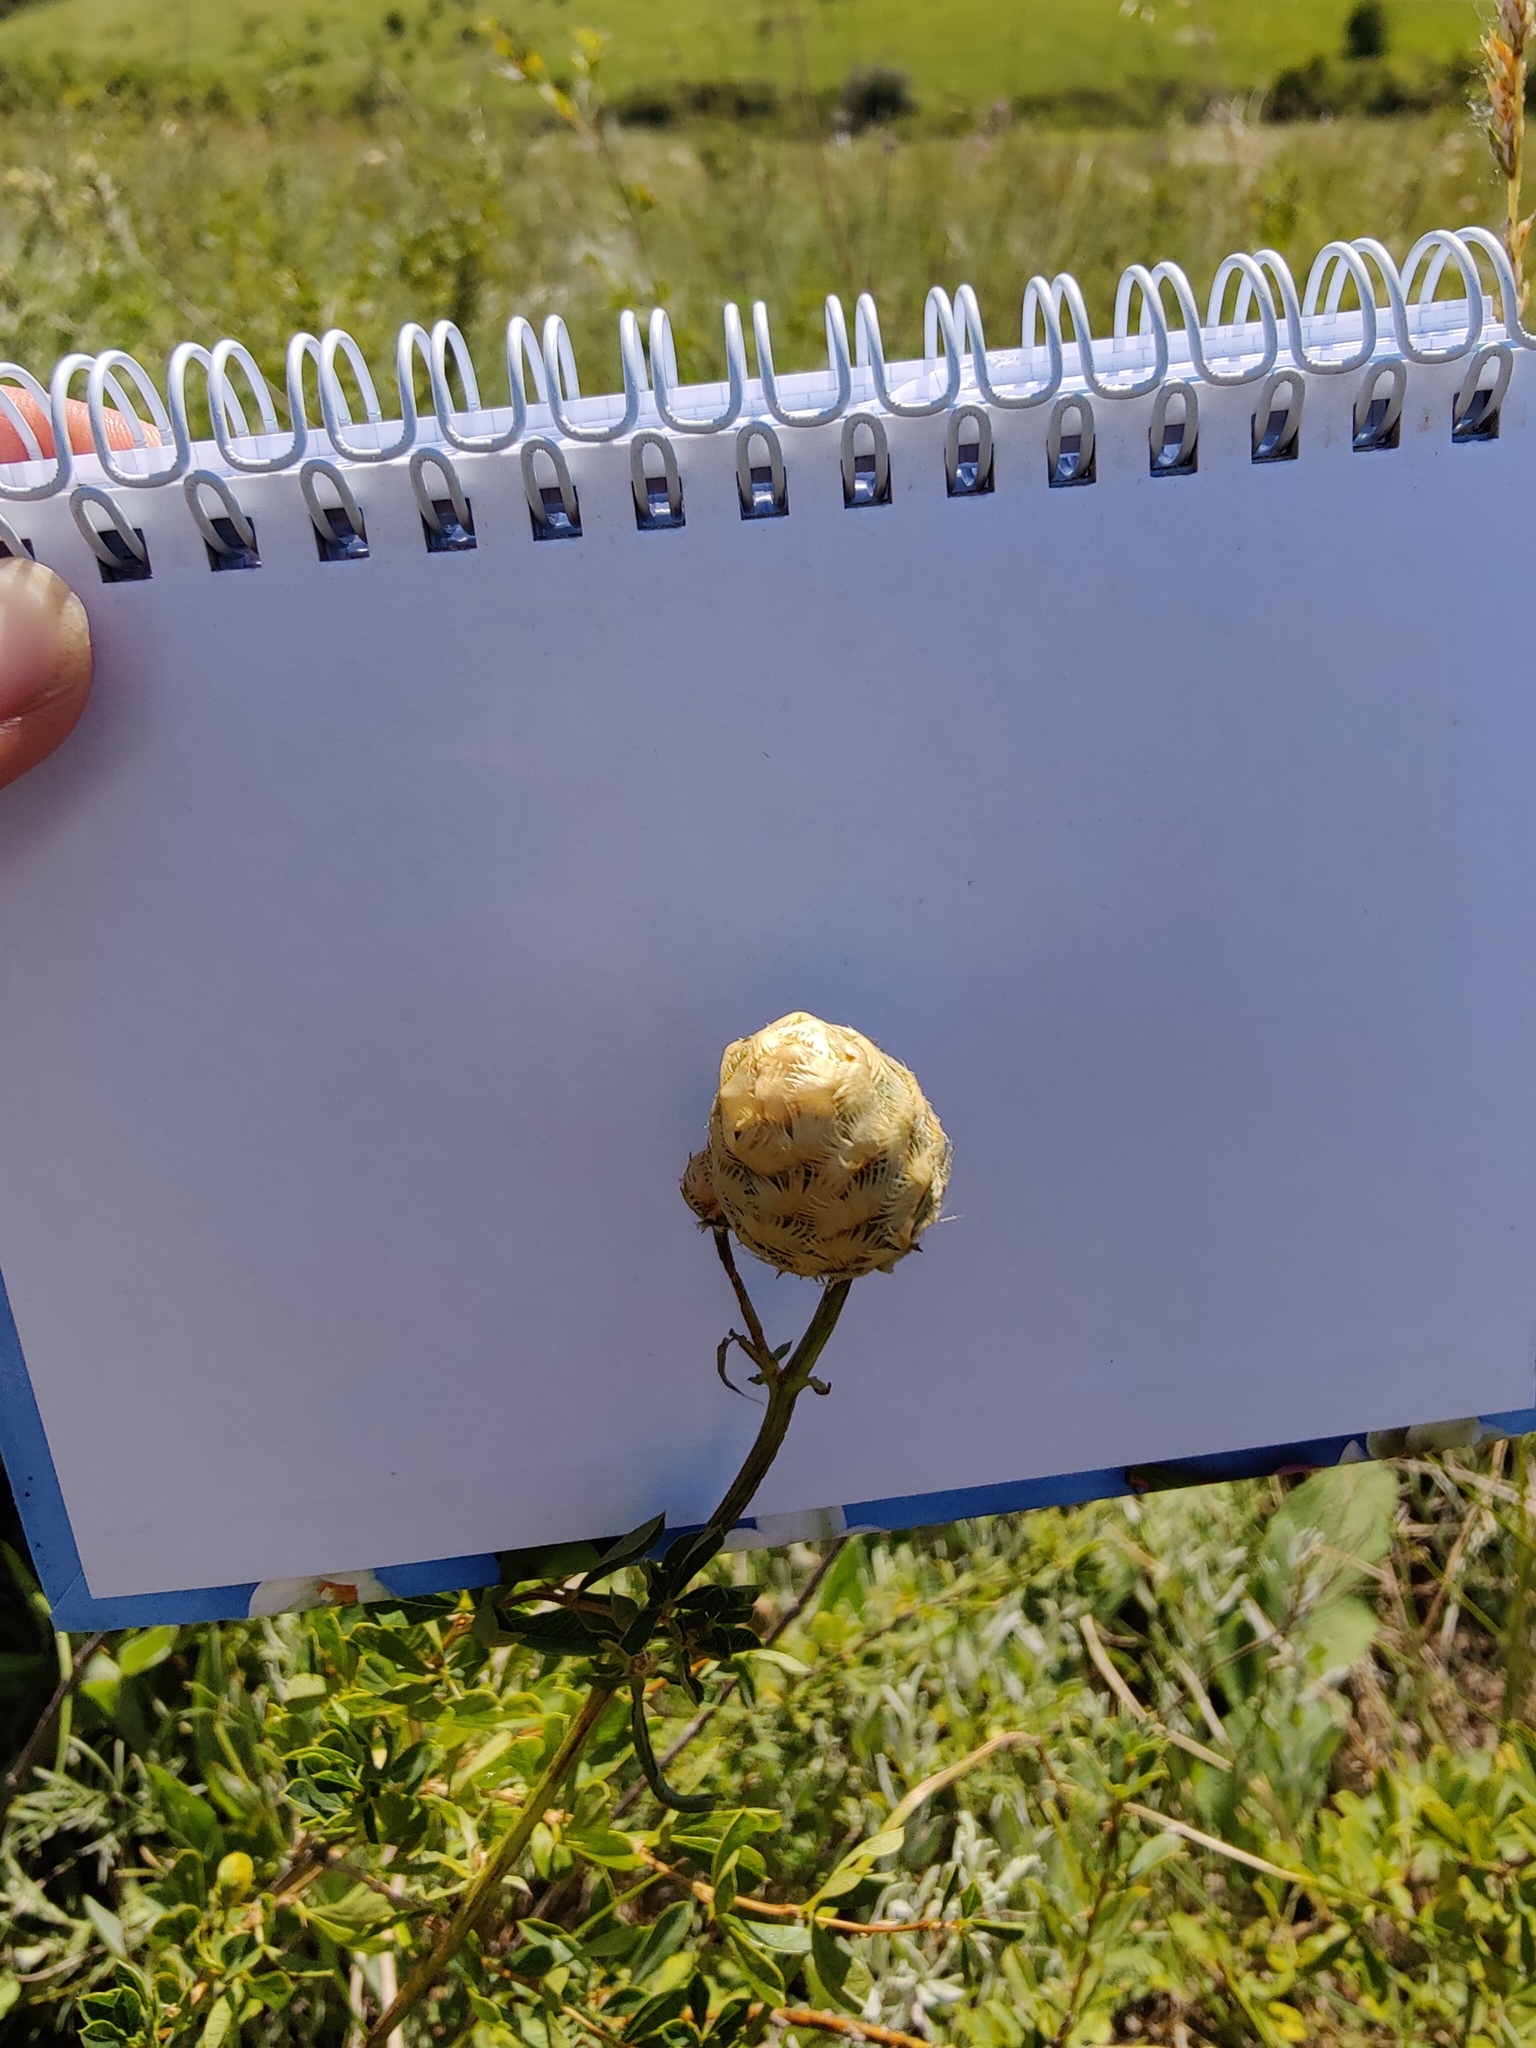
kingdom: Plantae
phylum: Tracheophyta
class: Magnoliopsida
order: Asterales
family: Asteraceae
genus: Centaurea
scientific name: Centaurea orientalis
